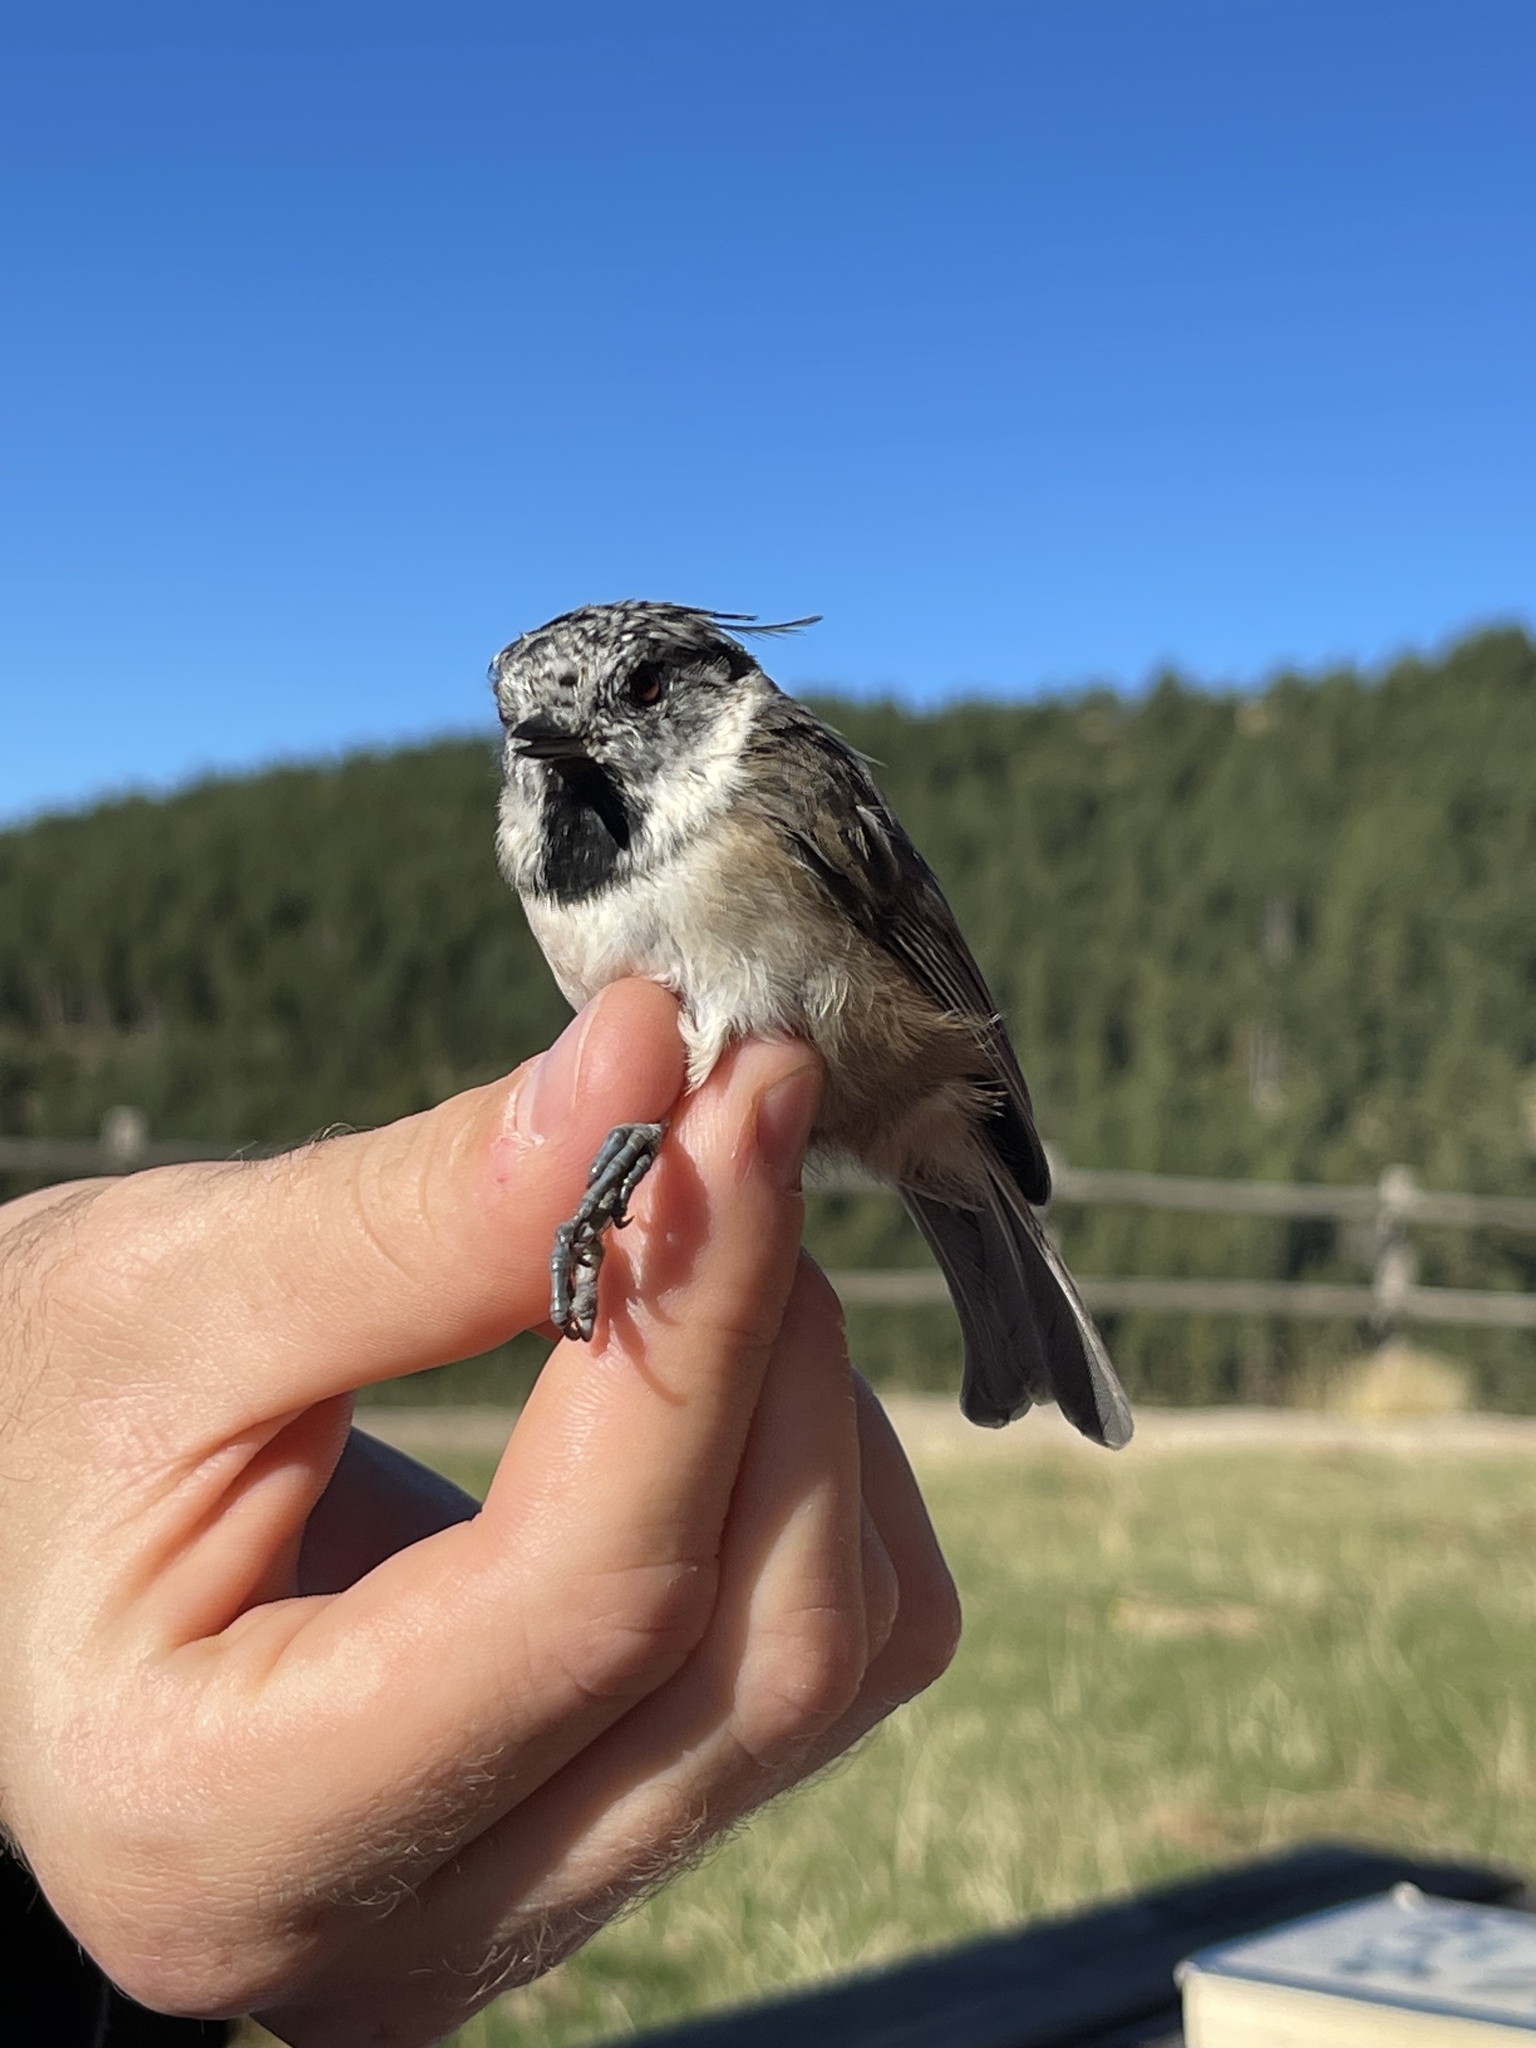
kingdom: Animalia
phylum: Chordata
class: Aves
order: Passeriformes
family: Paridae
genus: Lophophanes
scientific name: Lophophanes cristatus
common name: European crested tit
